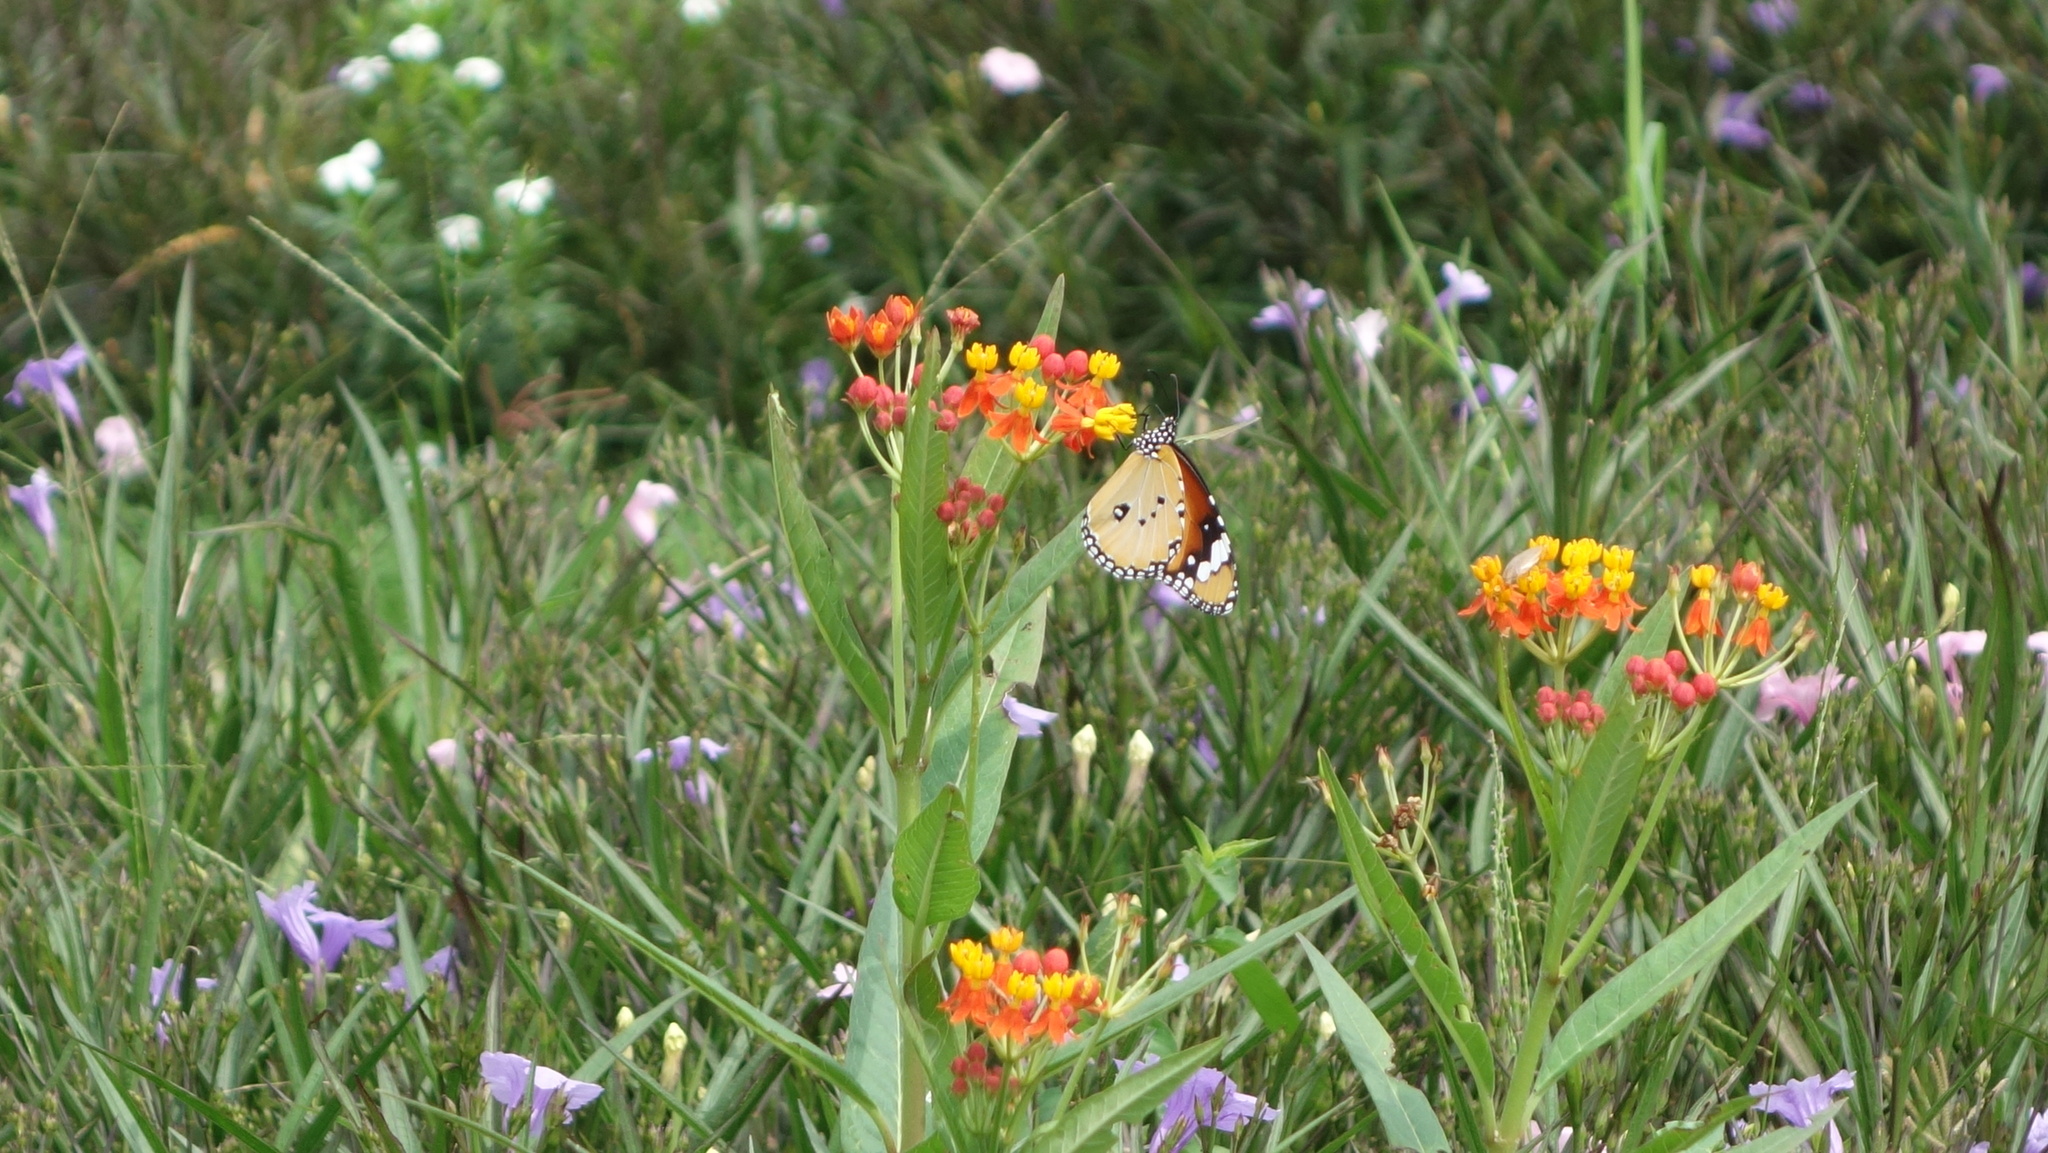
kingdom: Animalia
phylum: Arthropoda
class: Insecta
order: Lepidoptera
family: Nymphalidae
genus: Danaus
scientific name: Danaus chrysippus
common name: Plain tiger
